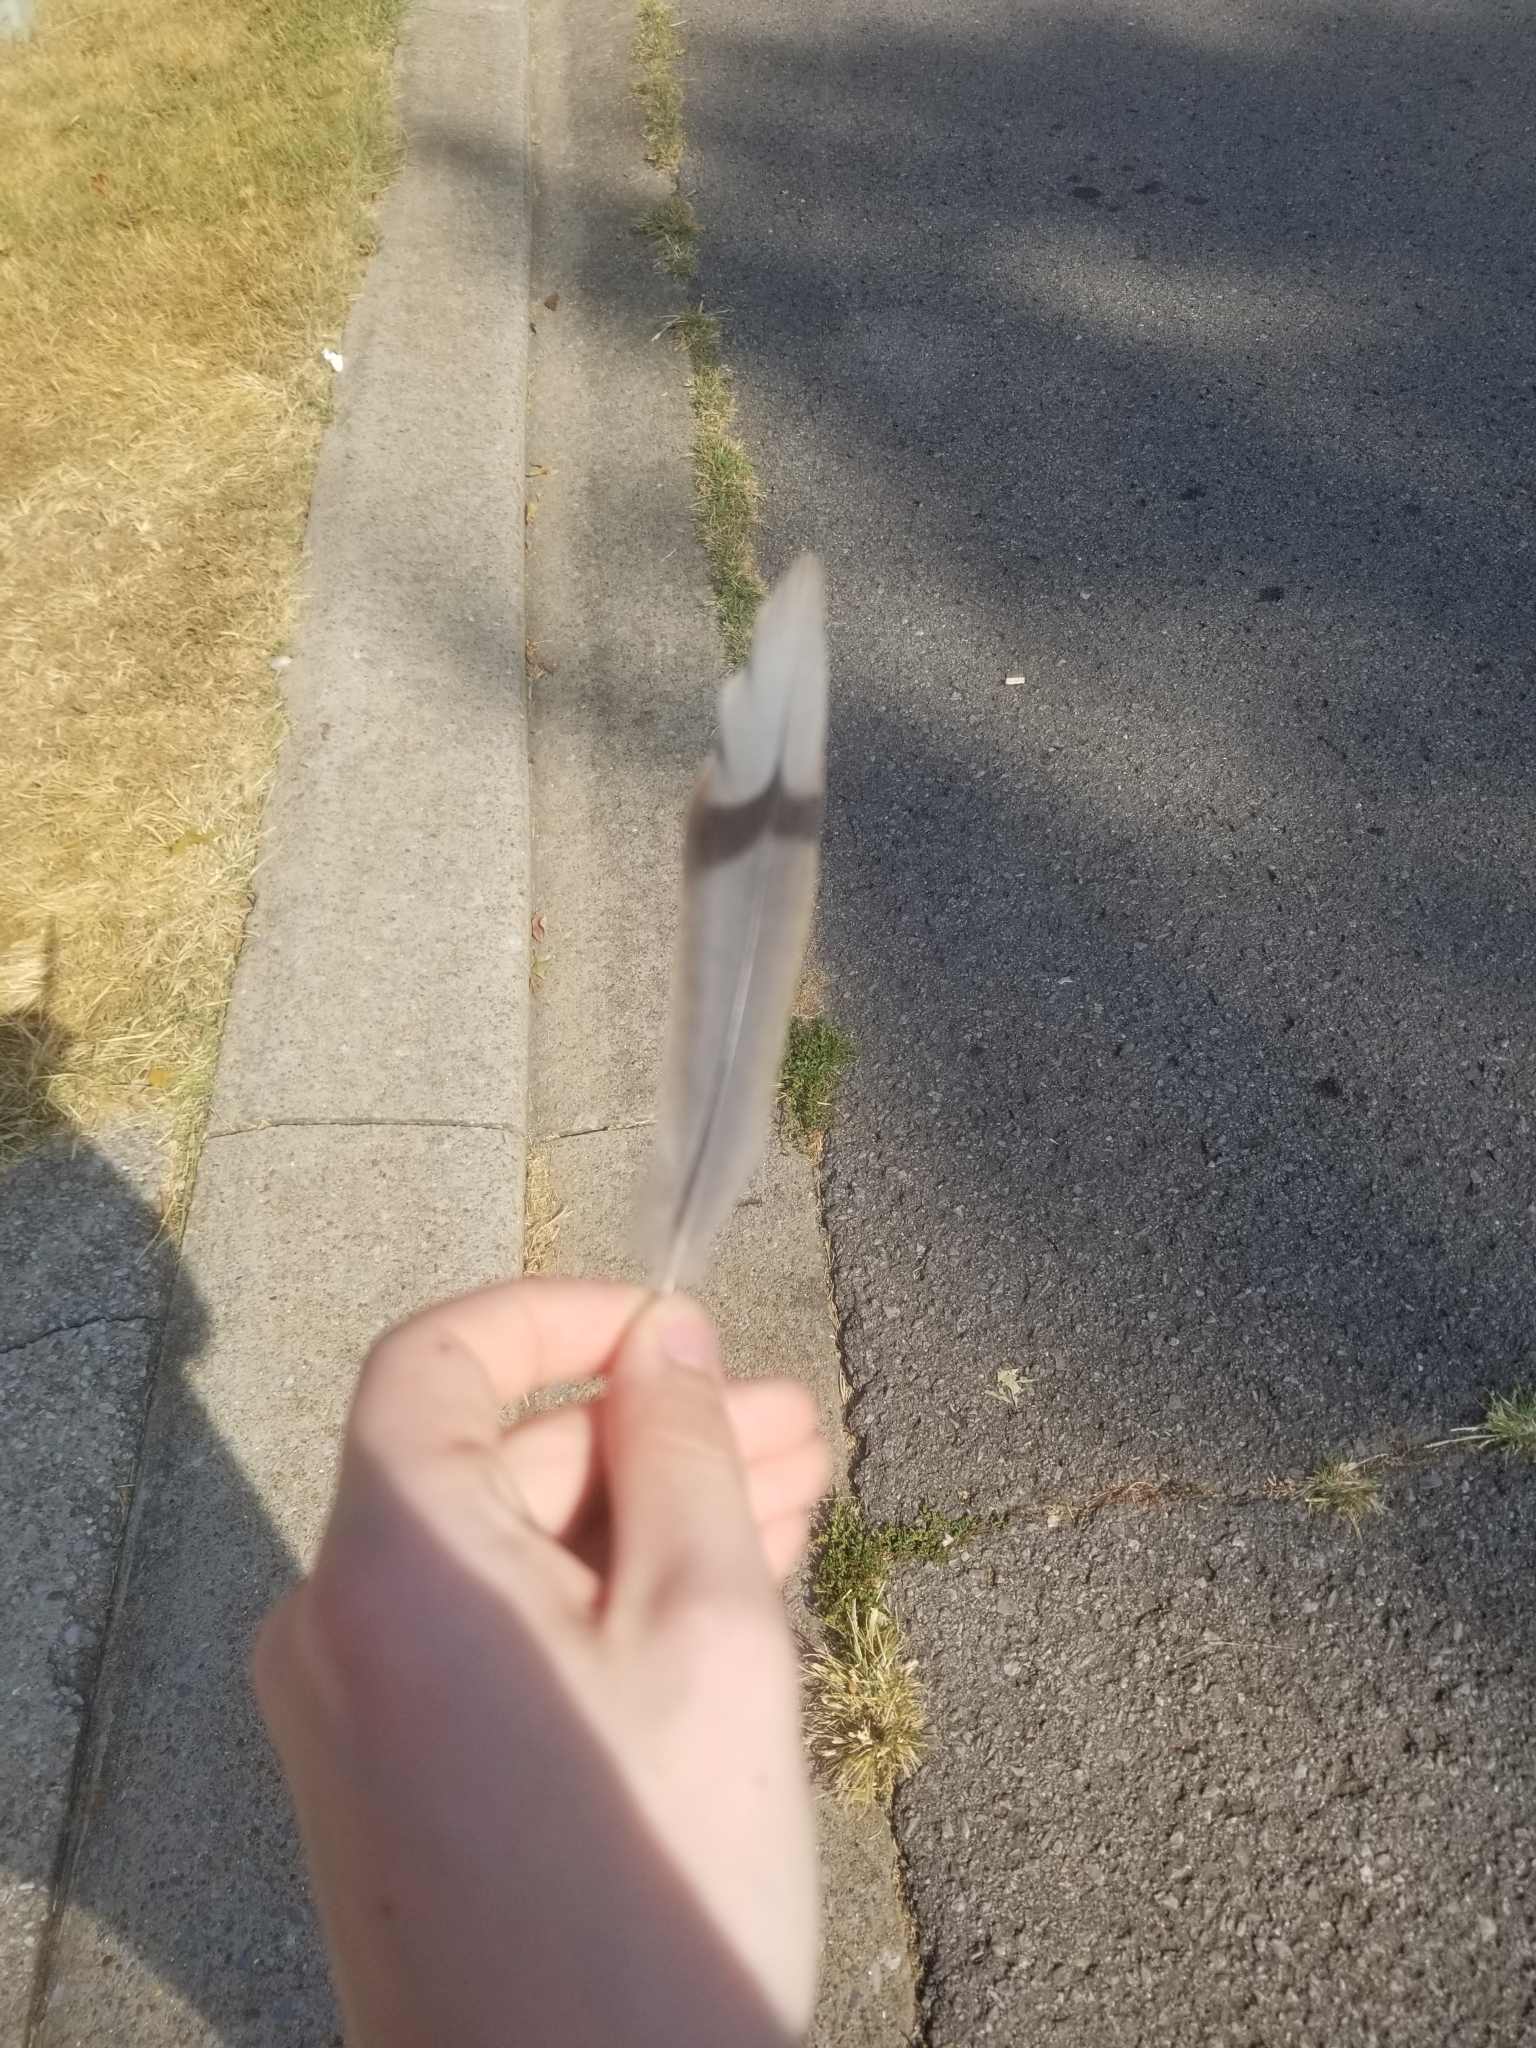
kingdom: Animalia
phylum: Chordata
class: Aves
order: Columbiformes
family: Columbidae
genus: Zenaida
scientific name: Zenaida macroura
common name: Mourning dove
